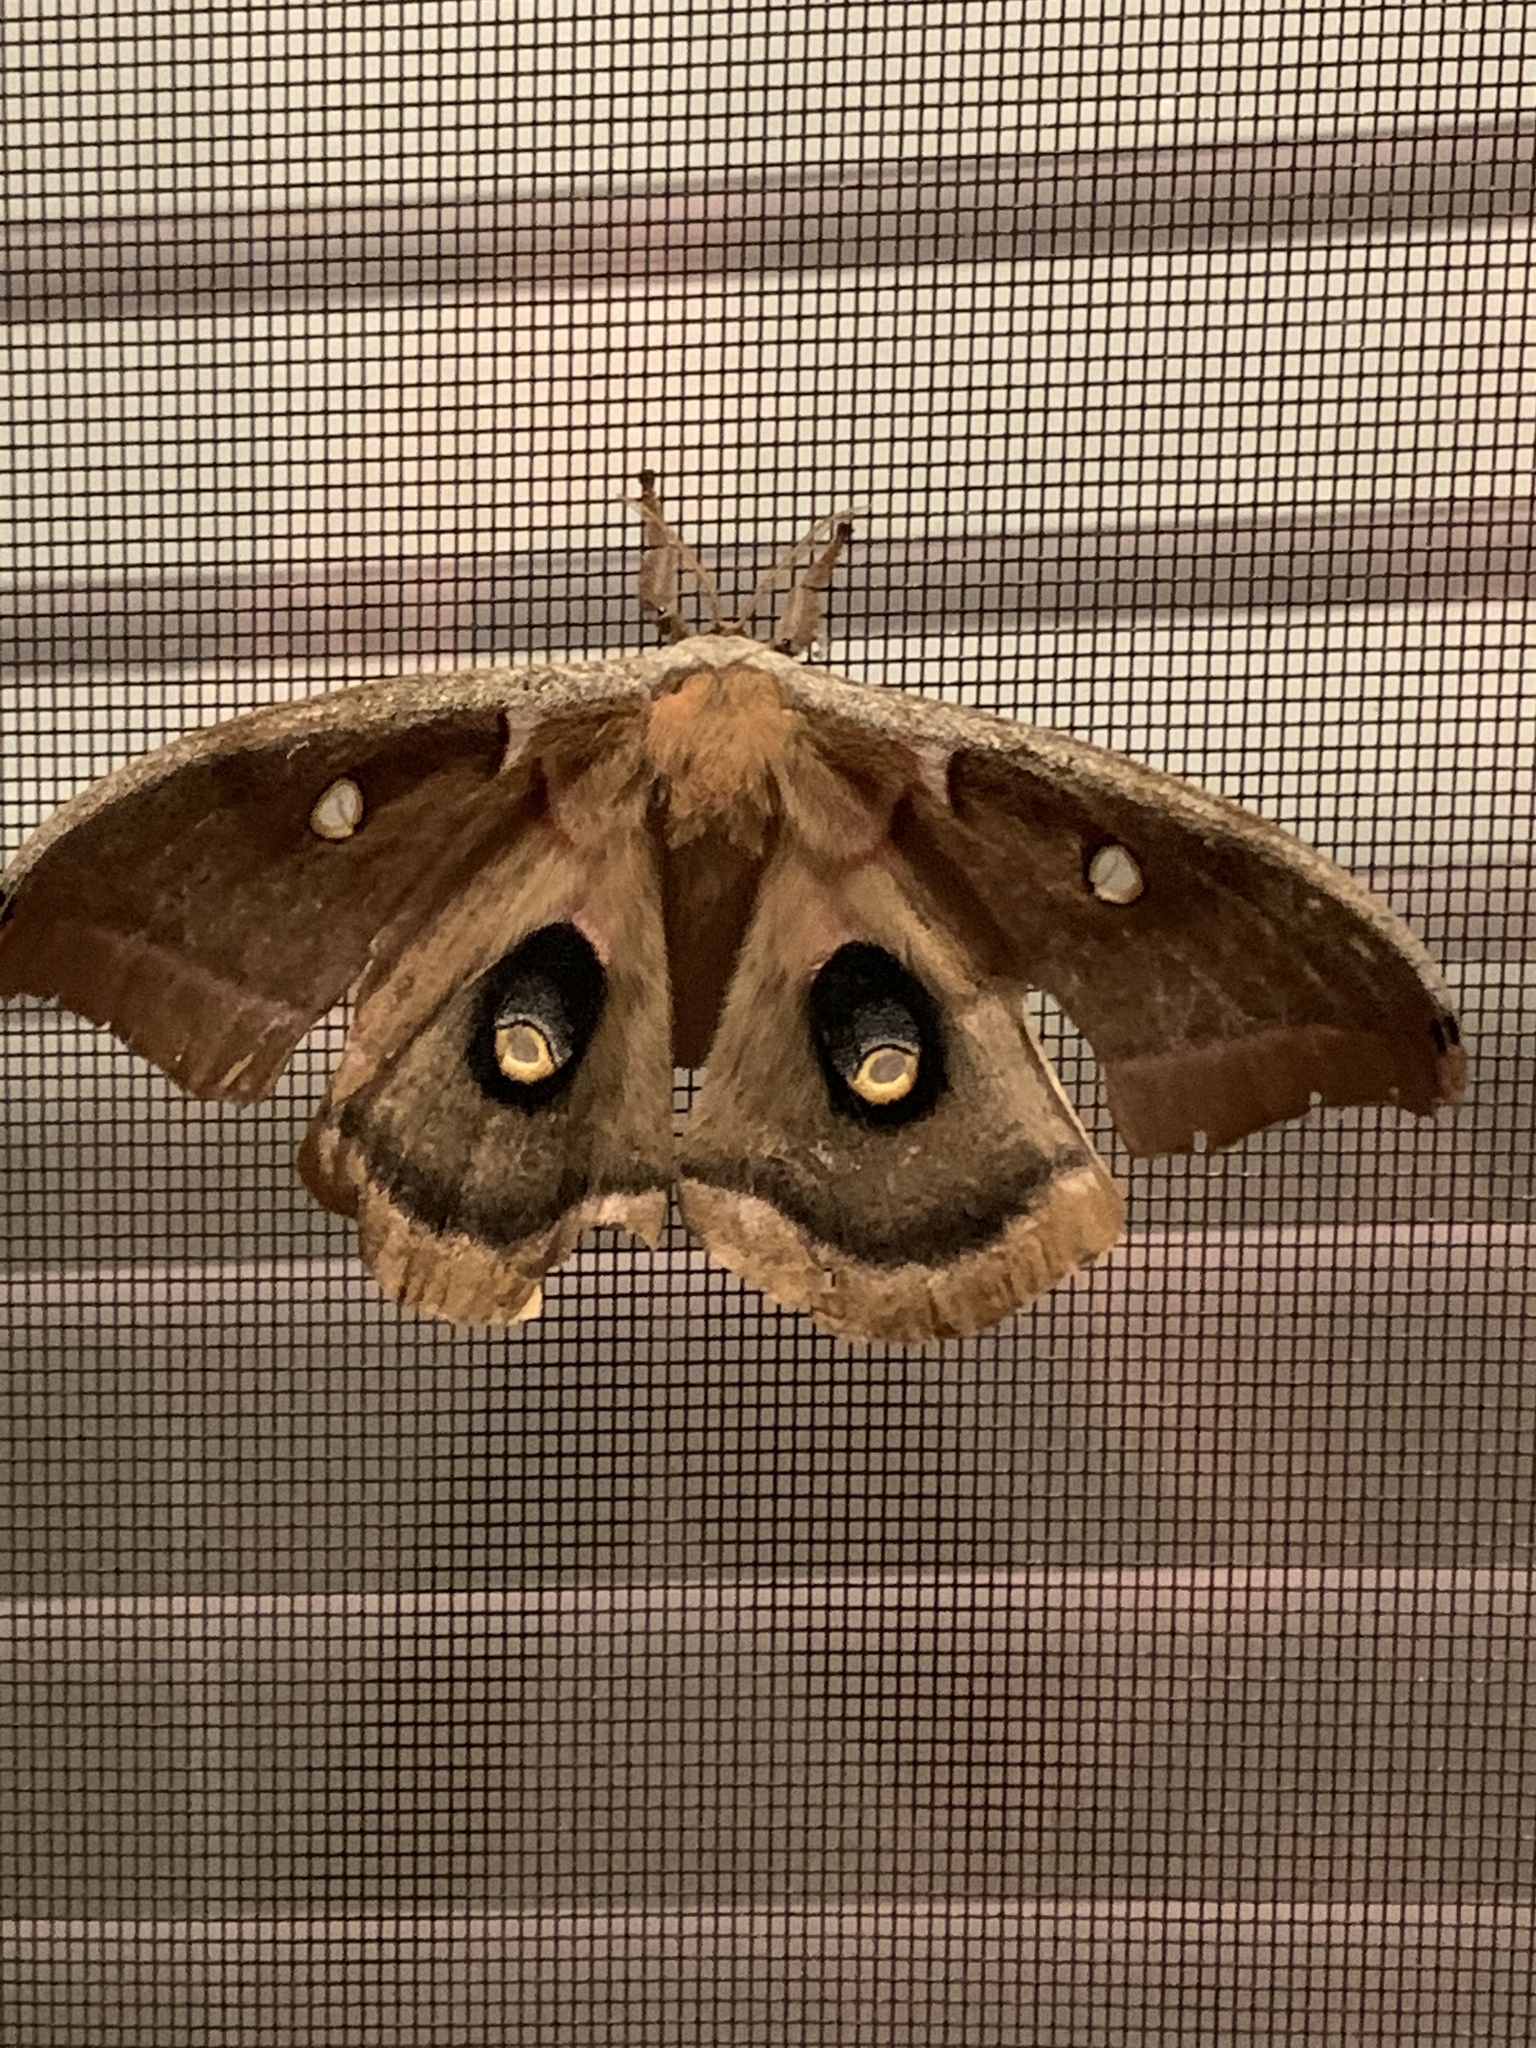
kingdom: Animalia
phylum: Arthropoda
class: Insecta
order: Lepidoptera
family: Saturniidae
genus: Antheraea
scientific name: Antheraea polyphemus
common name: Polyphemus moth
